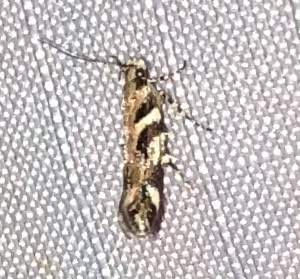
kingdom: Animalia
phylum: Arthropoda
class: Insecta
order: Lepidoptera
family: Gelechiidae
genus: Aristotelia
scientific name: Aristotelia roseosuffusella
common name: Pink-washed aristotelia moth
